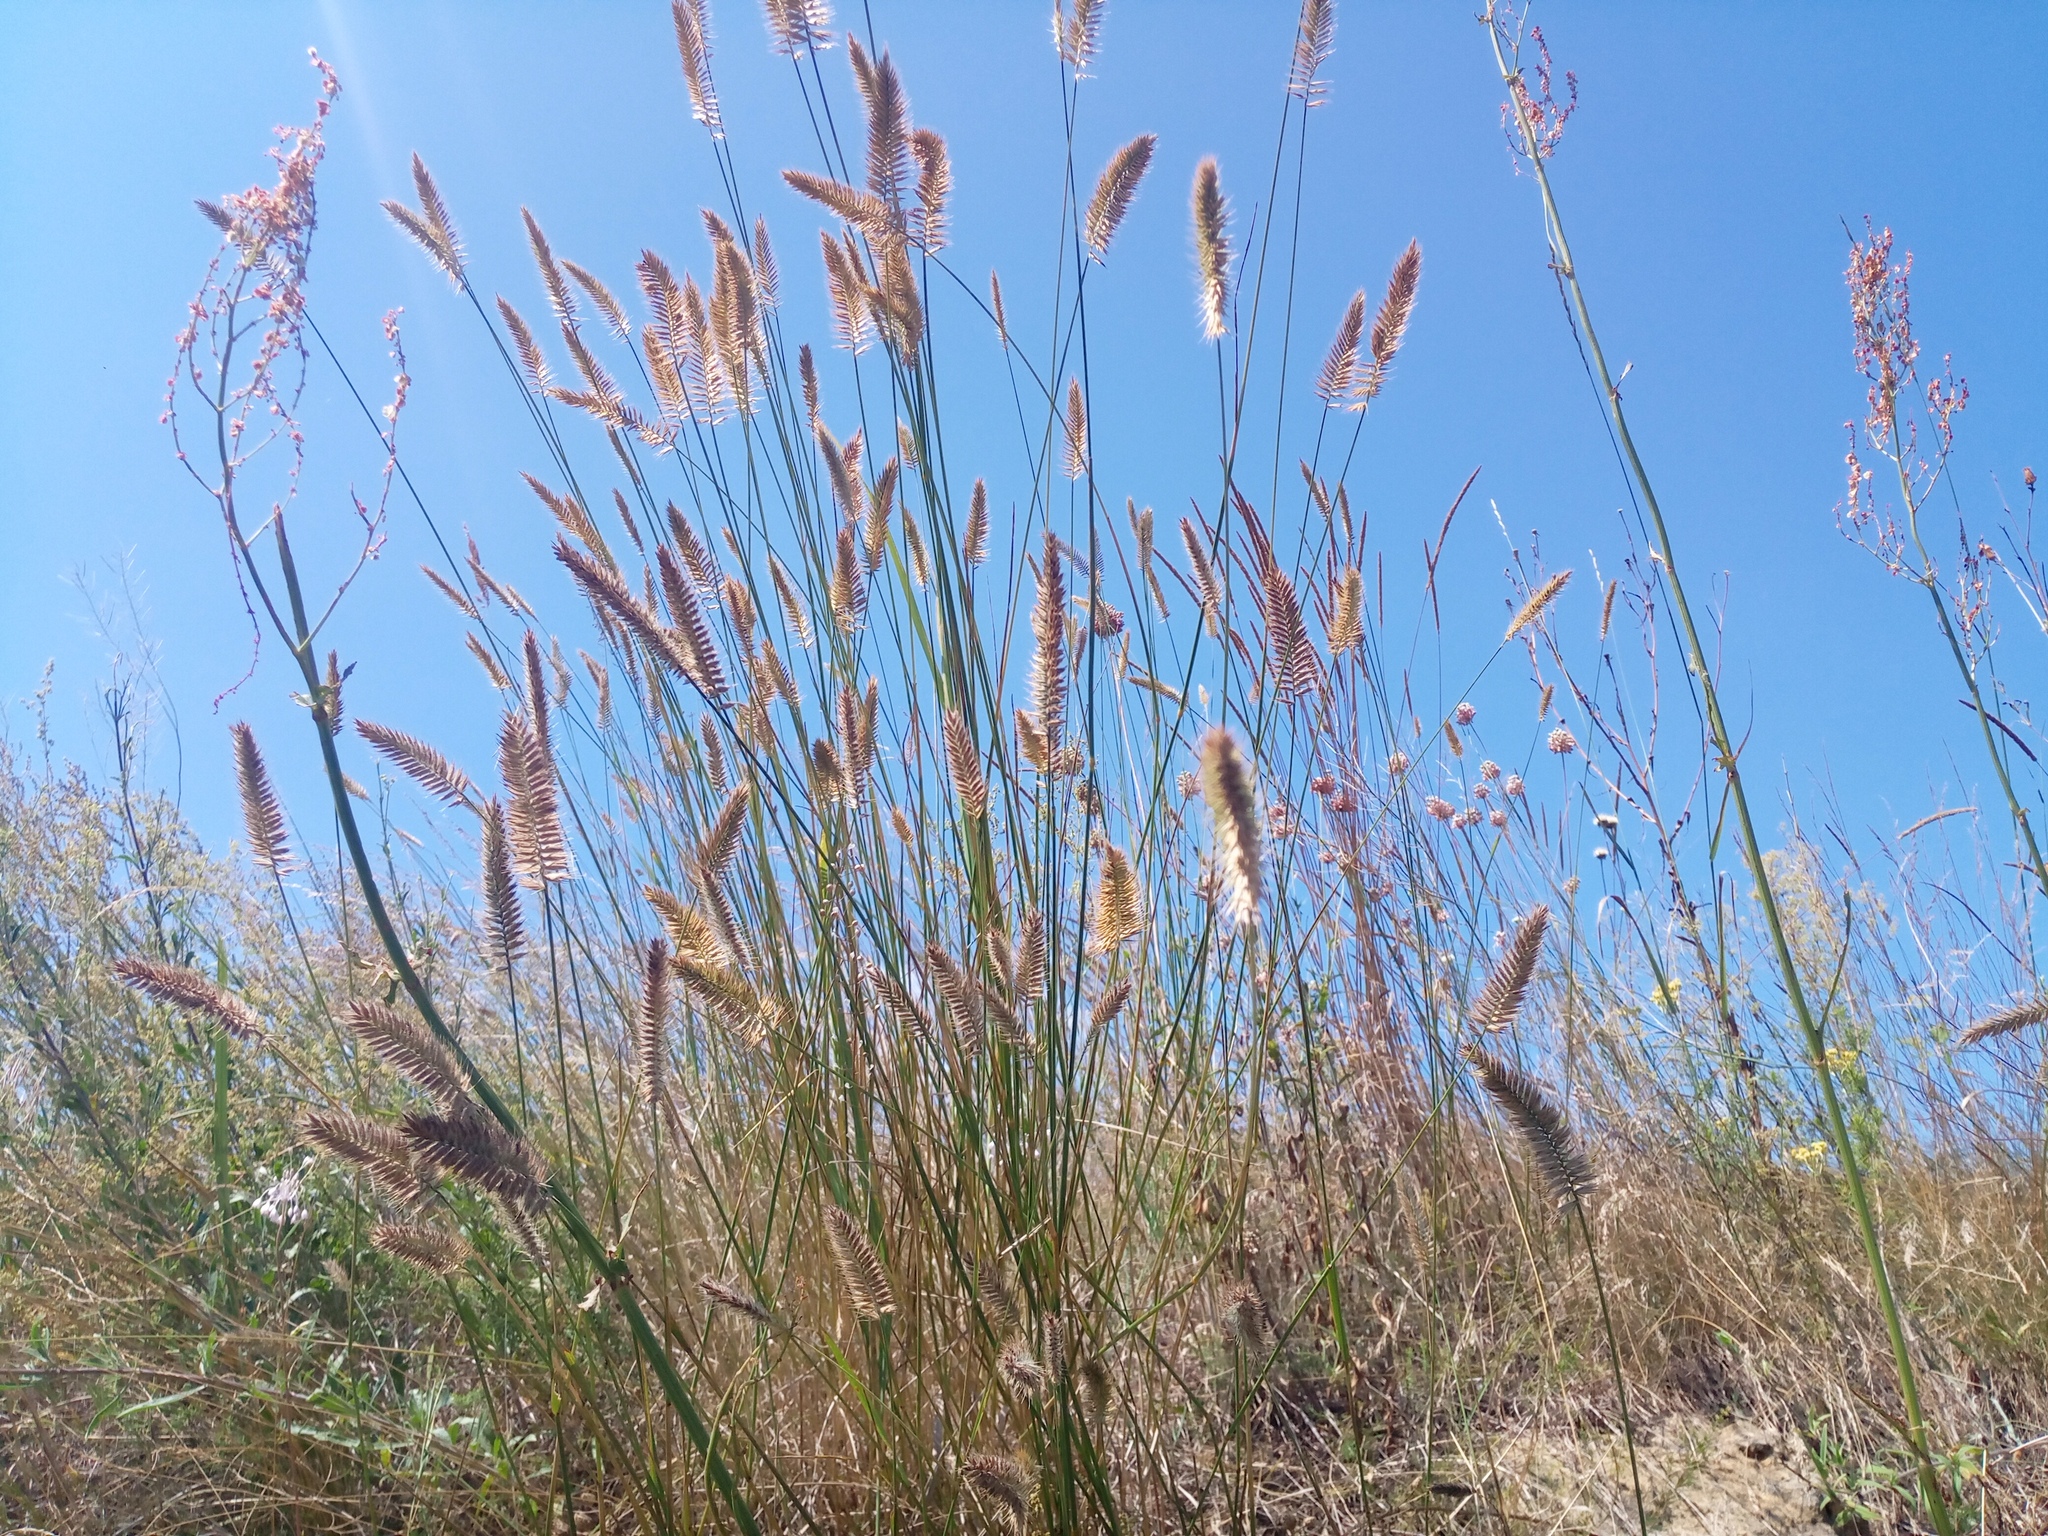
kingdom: Plantae
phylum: Tracheophyta
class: Liliopsida
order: Poales
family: Poaceae
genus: Agropyron
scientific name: Agropyron cristatum
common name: Crested wheatgrass
